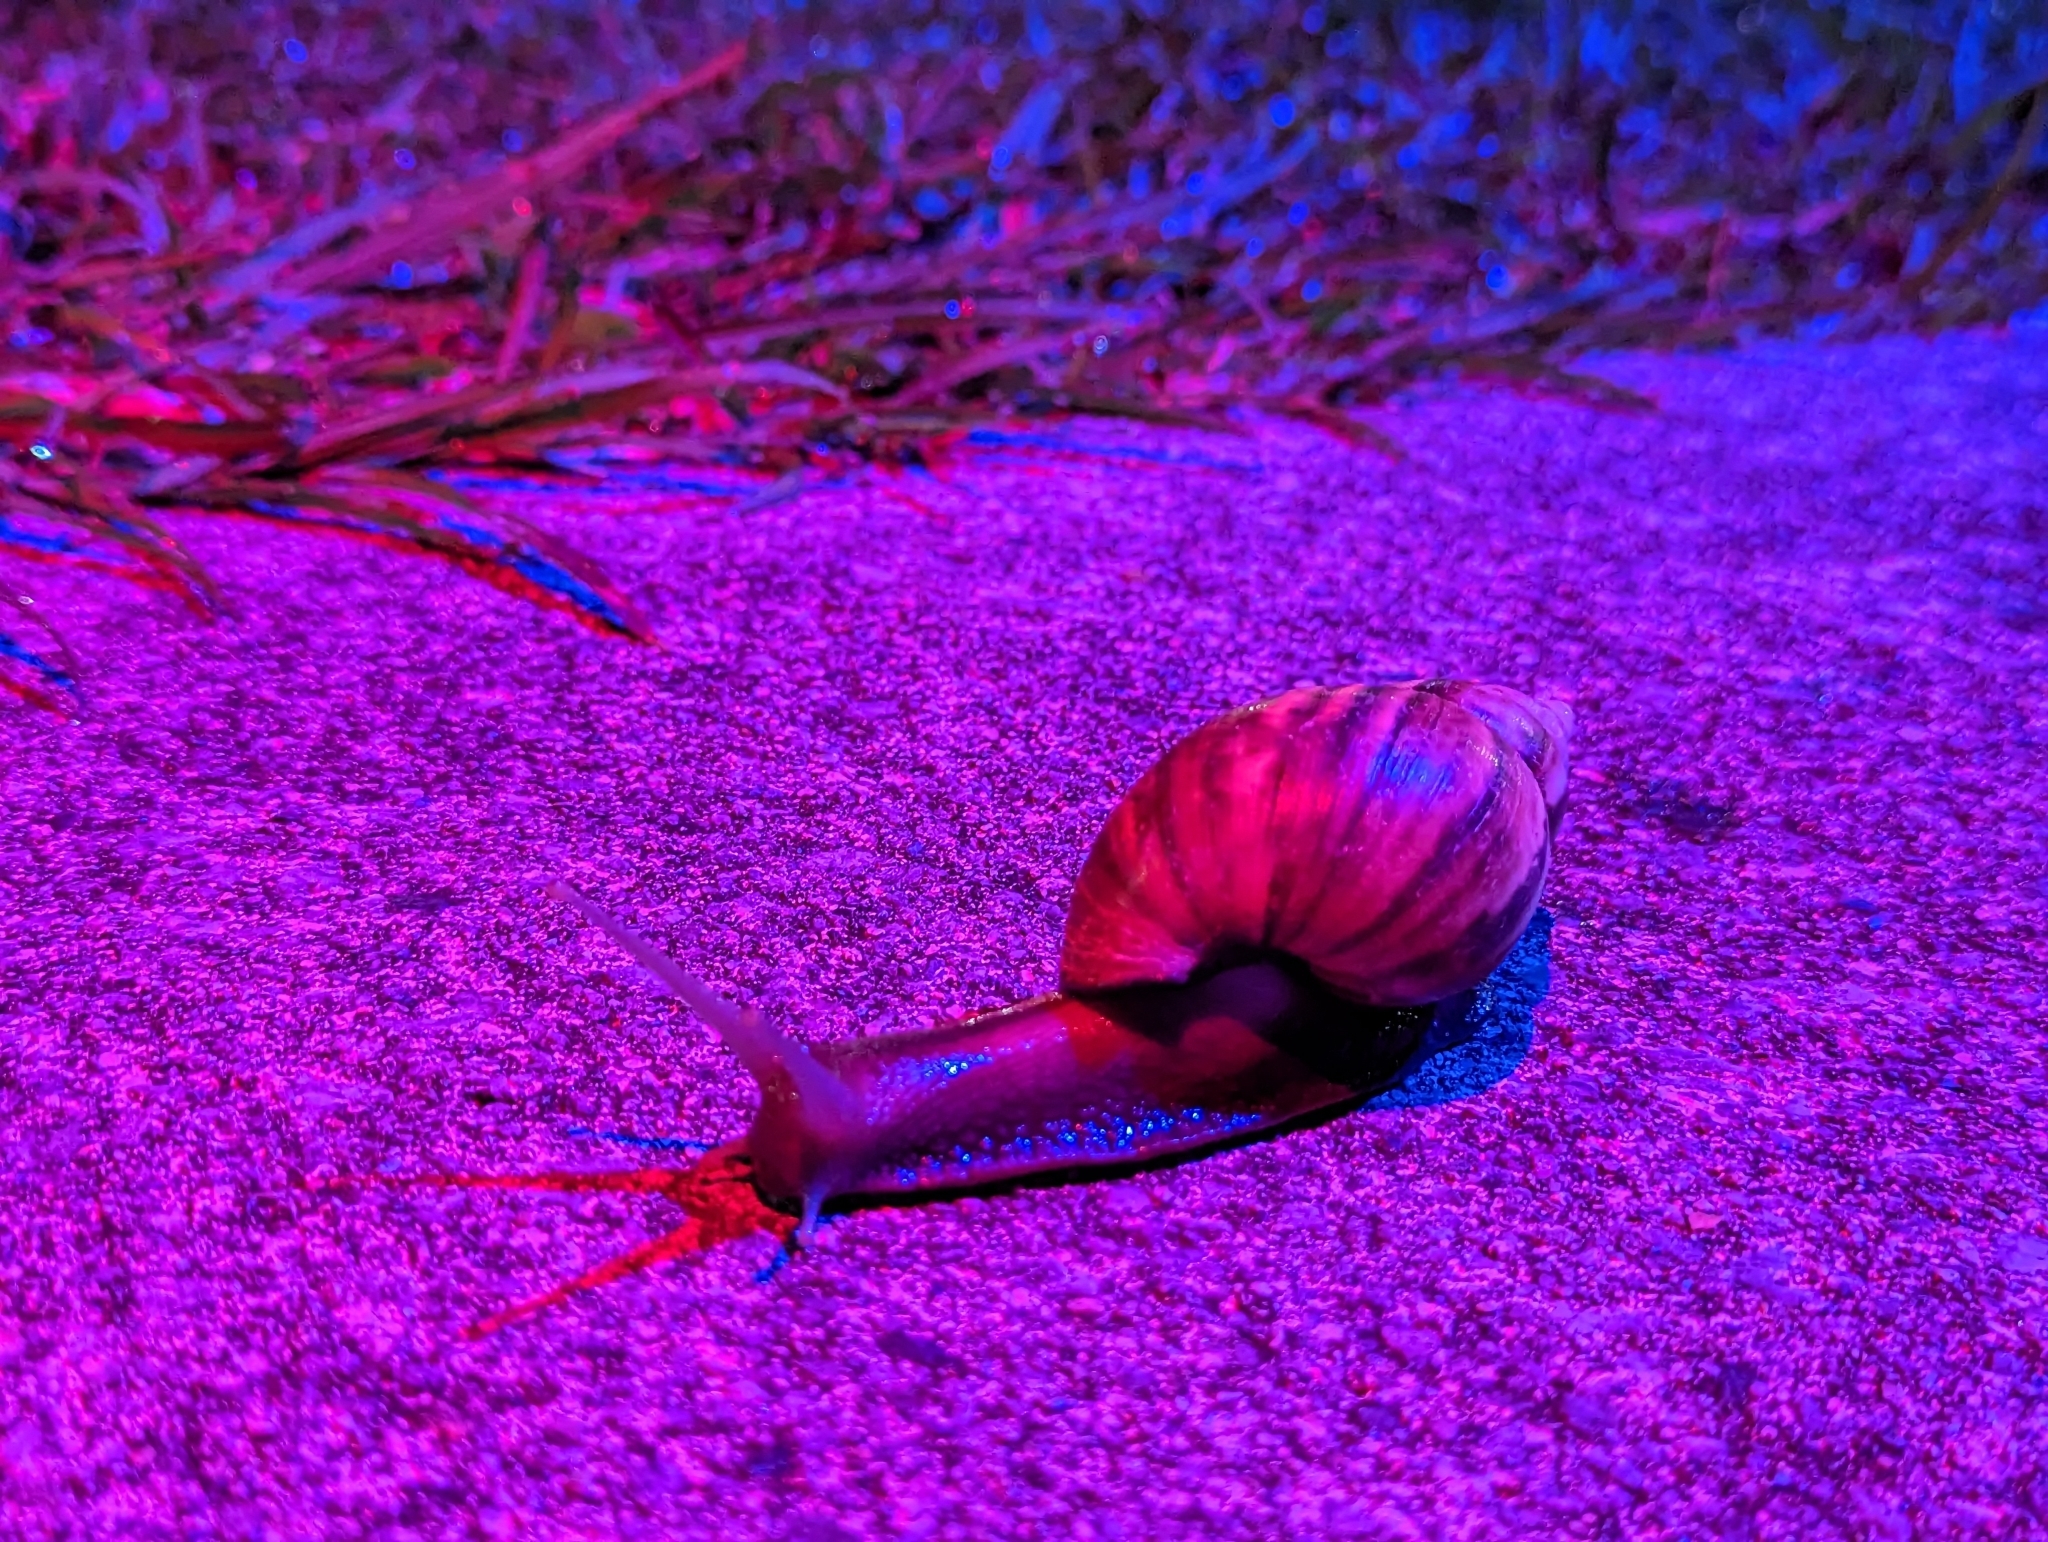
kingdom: Animalia
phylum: Mollusca
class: Gastropoda
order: Stylommatophora
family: Achatinidae
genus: Lissachatina
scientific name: Lissachatina fulica
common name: Giant african snail
